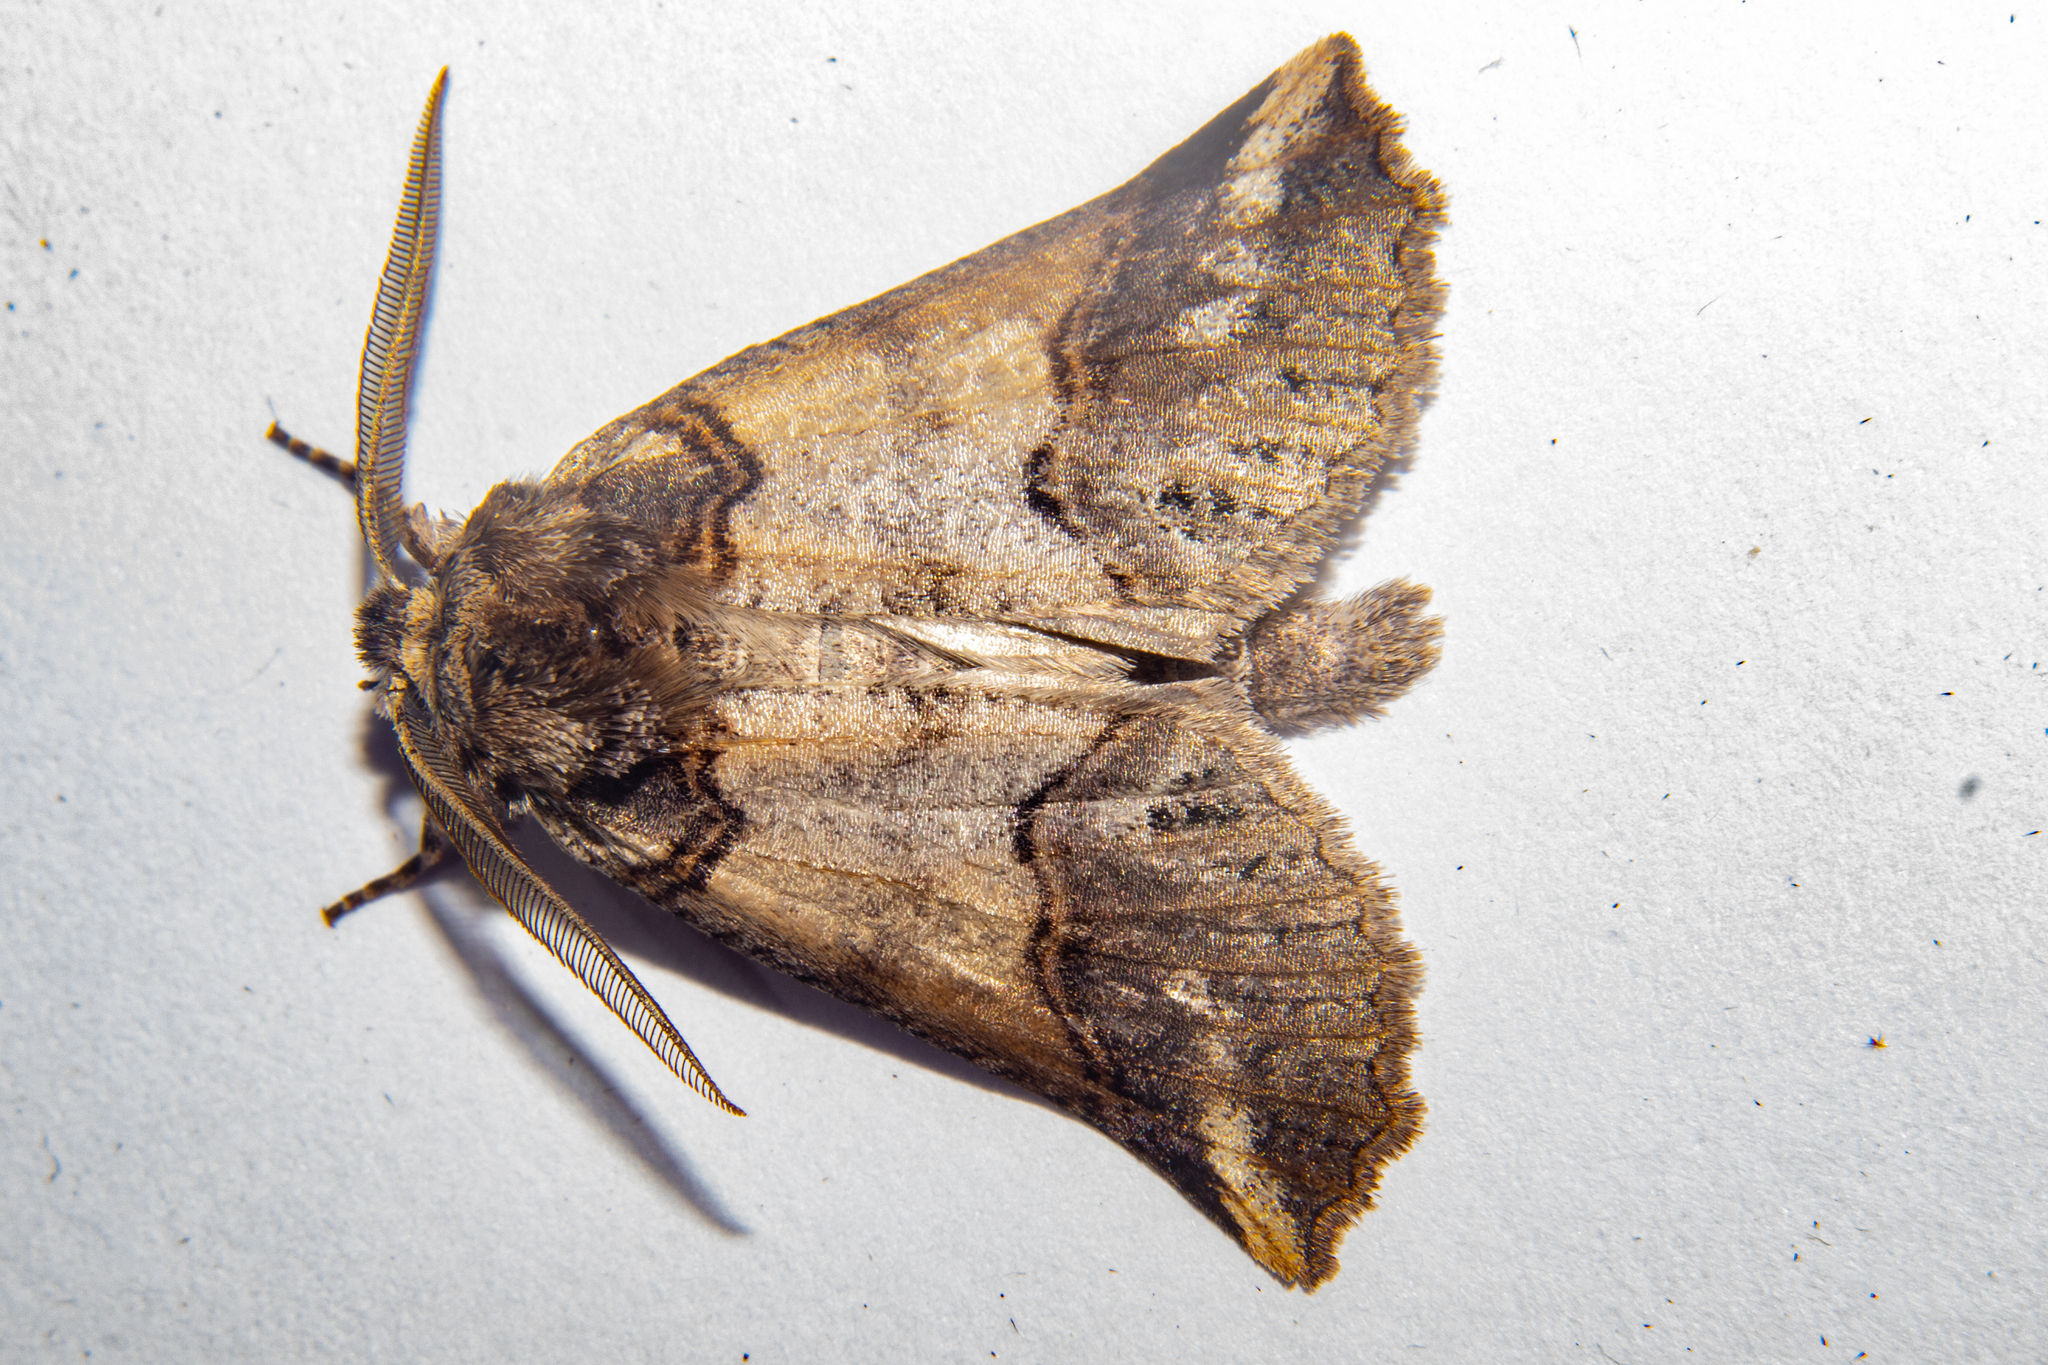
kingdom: Animalia
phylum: Arthropoda
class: Insecta
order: Lepidoptera
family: Geometridae
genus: Declana
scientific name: Declana
